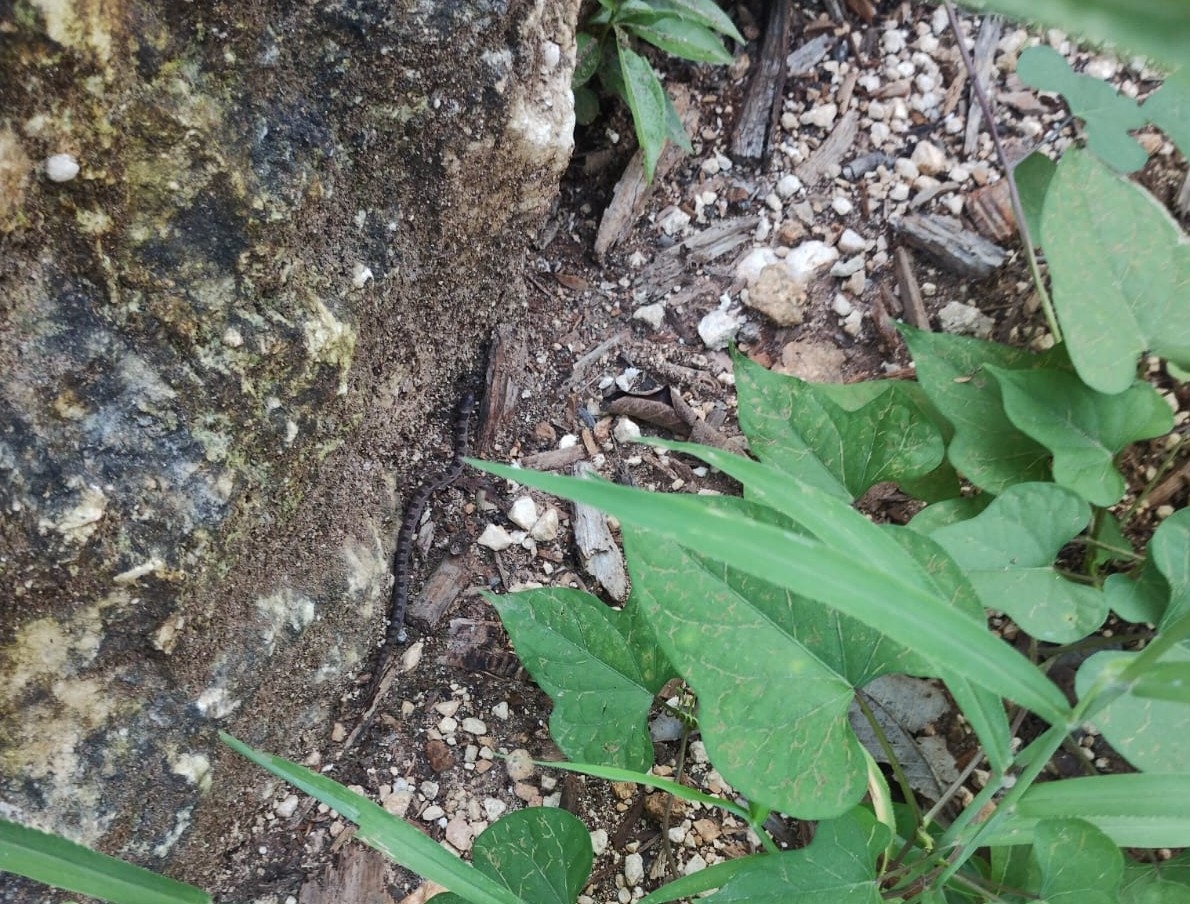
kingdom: Animalia
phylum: Chordata
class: Squamata
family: Colubridae
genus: Ficimia
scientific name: Ficimia publia
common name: Blotched hooknose snake
